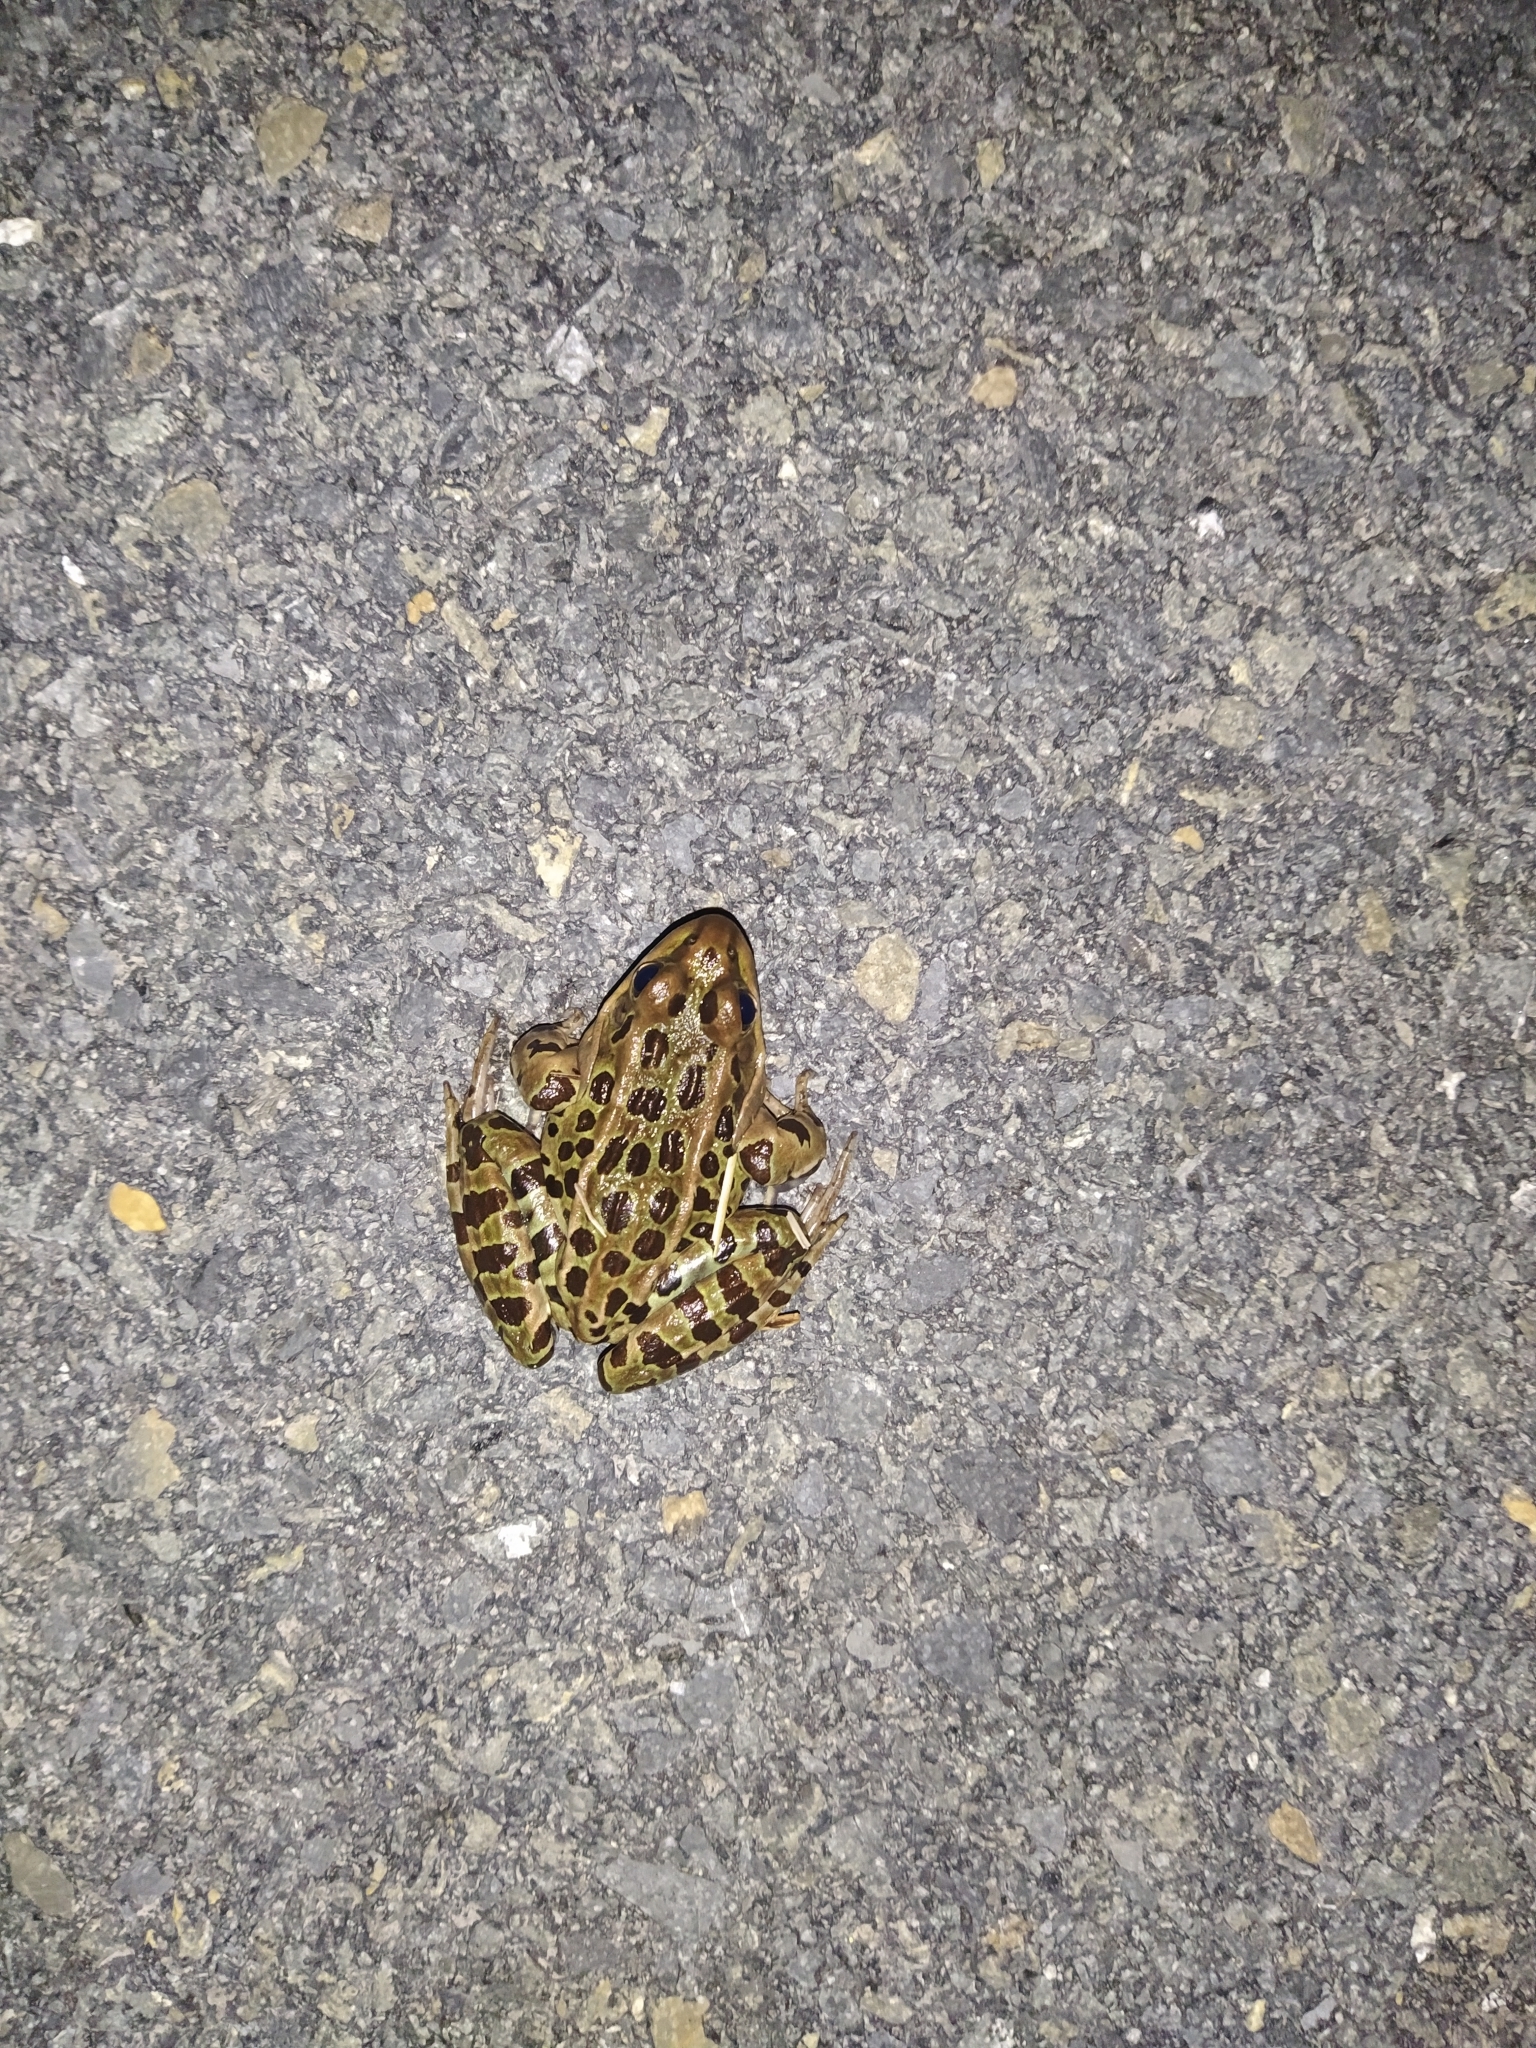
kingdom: Animalia
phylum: Chordata
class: Amphibia
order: Anura
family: Ranidae
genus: Lithobates
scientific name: Lithobates pipiens
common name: Northern leopard frog
